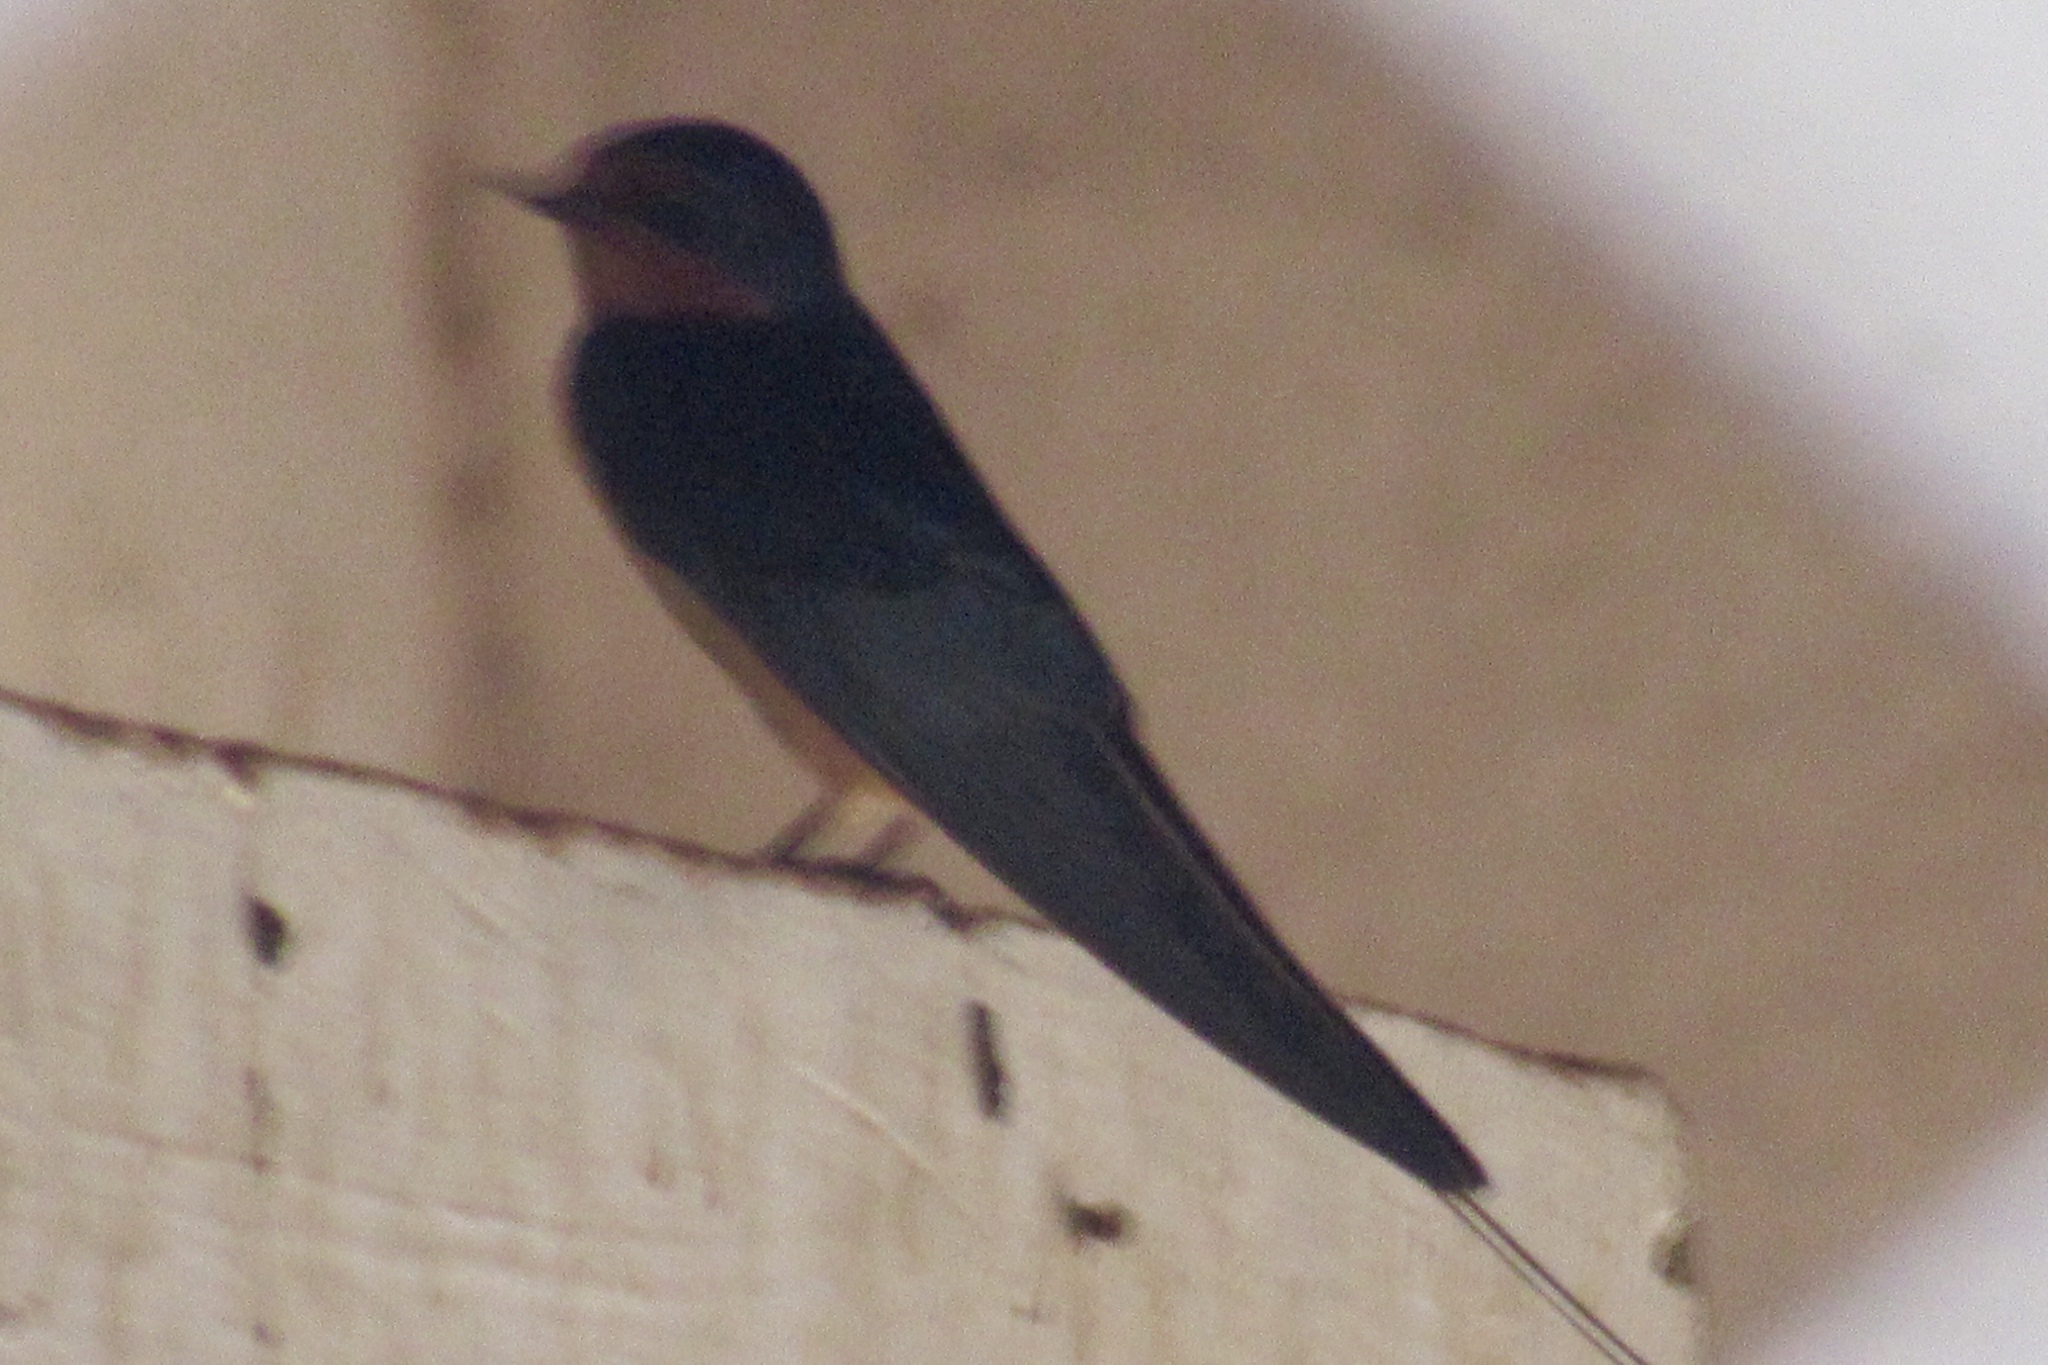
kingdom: Animalia
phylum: Chordata
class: Aves
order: Passeriformes
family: Hirundinidae
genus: Hirundo
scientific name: Hirundo rustica
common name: Barn swallow
